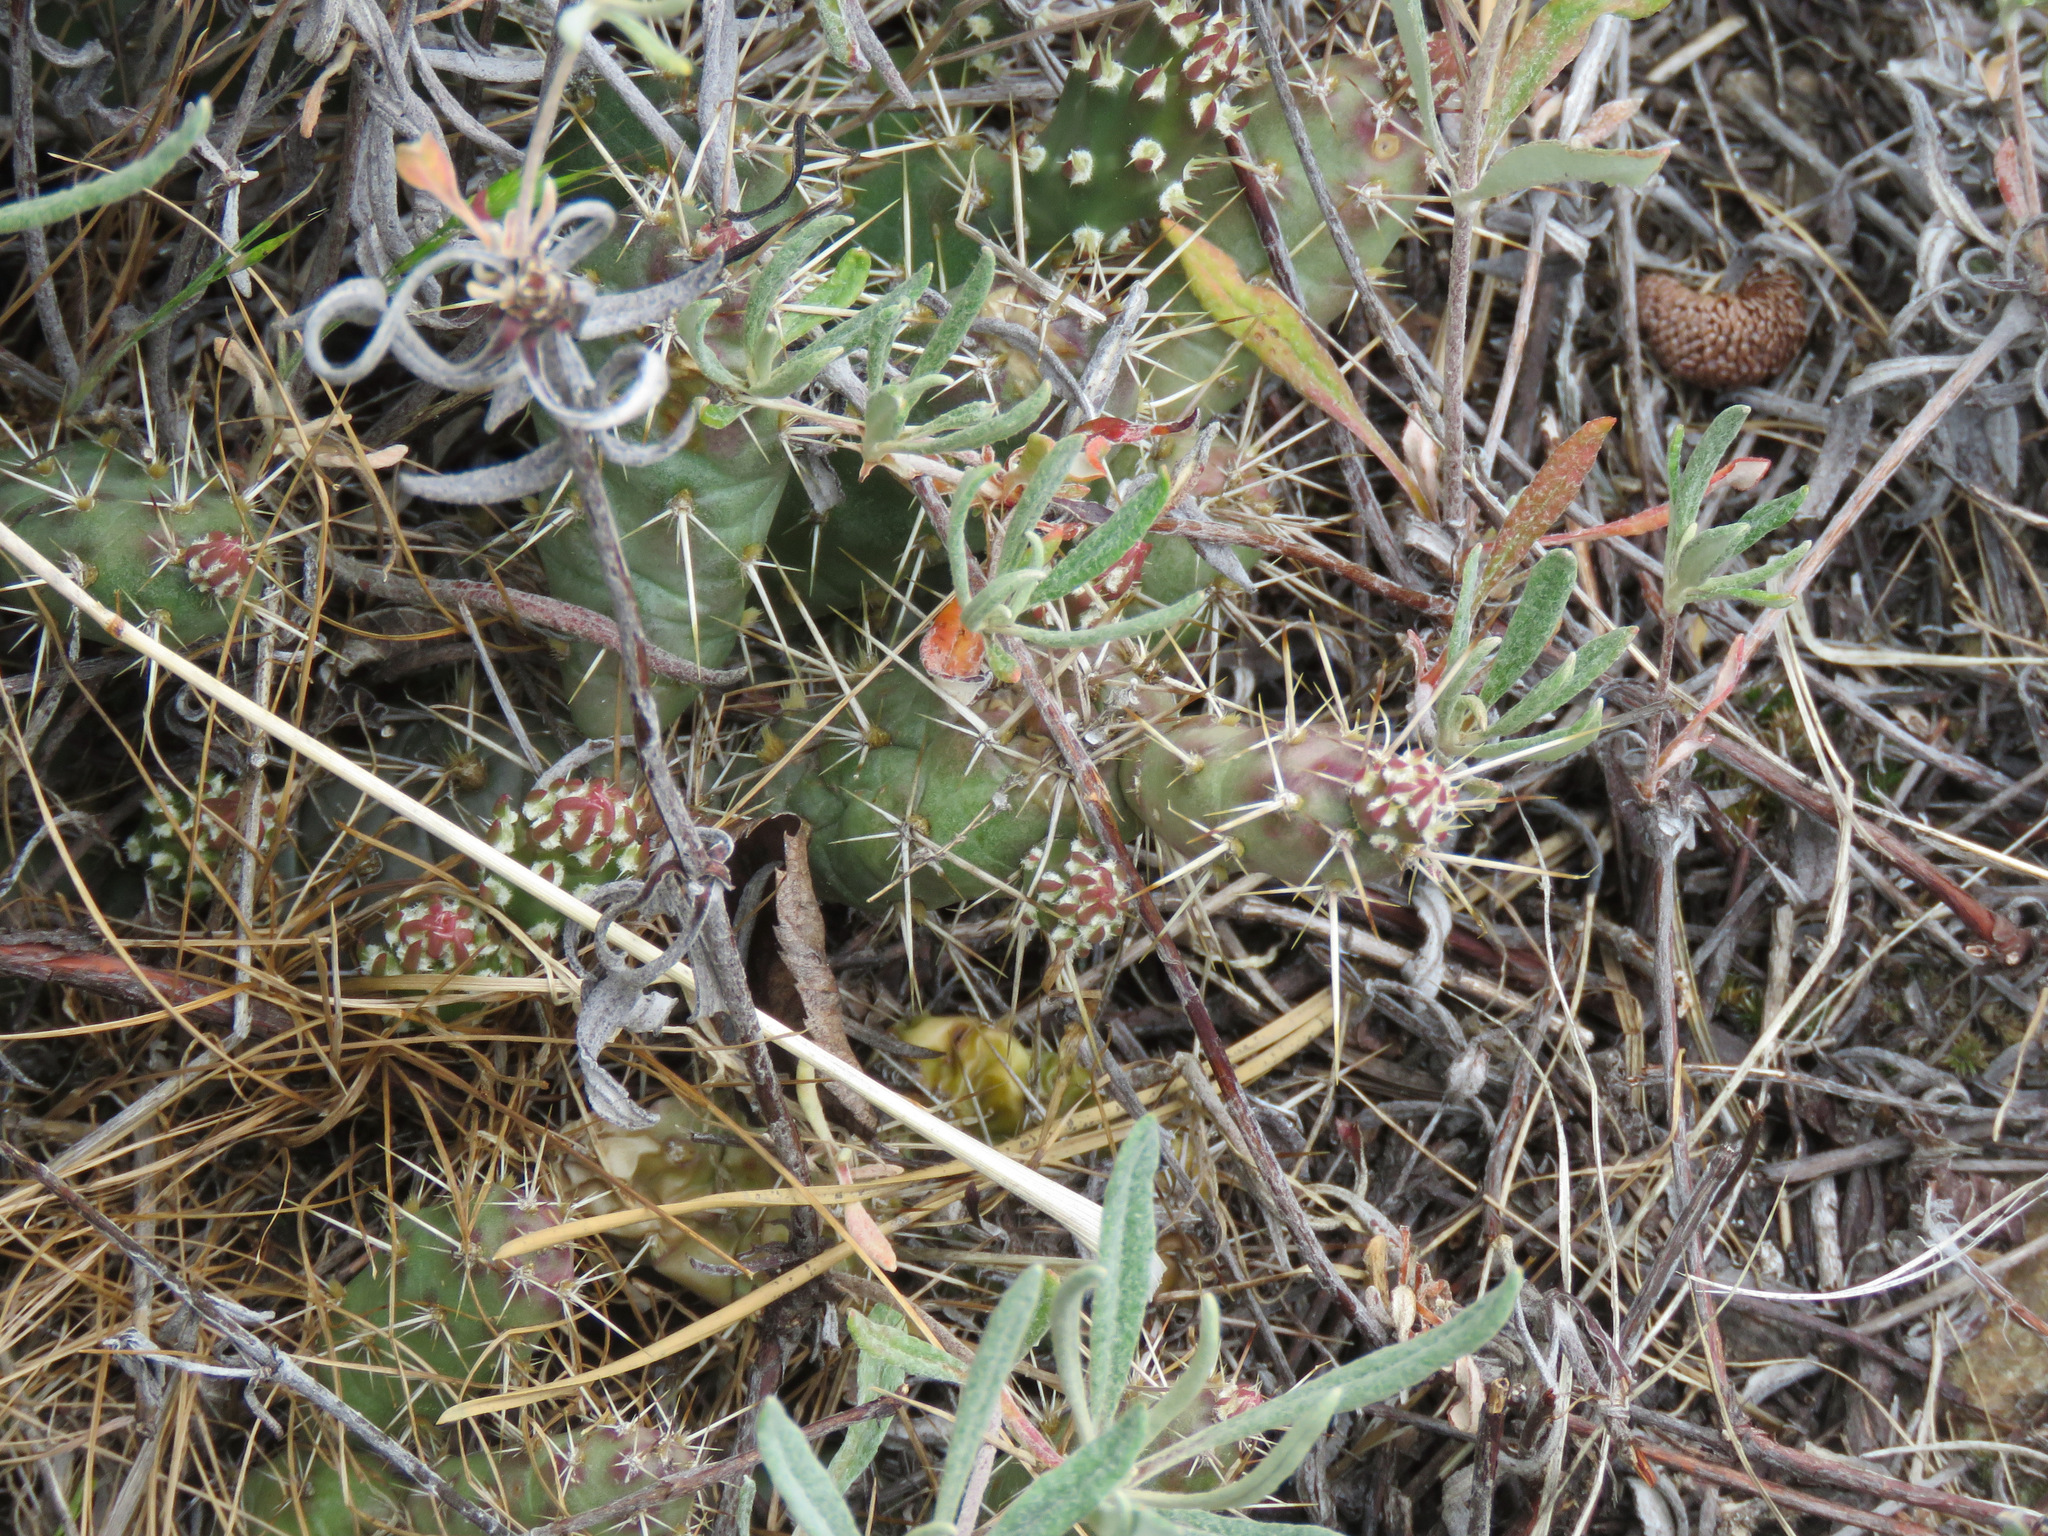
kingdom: Plantae
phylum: Tracheophyta
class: Magnoliopsida
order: Caryophyllales
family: Cactaceae
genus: Opuntia
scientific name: Opuntia fragilis
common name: Brittle cactus
